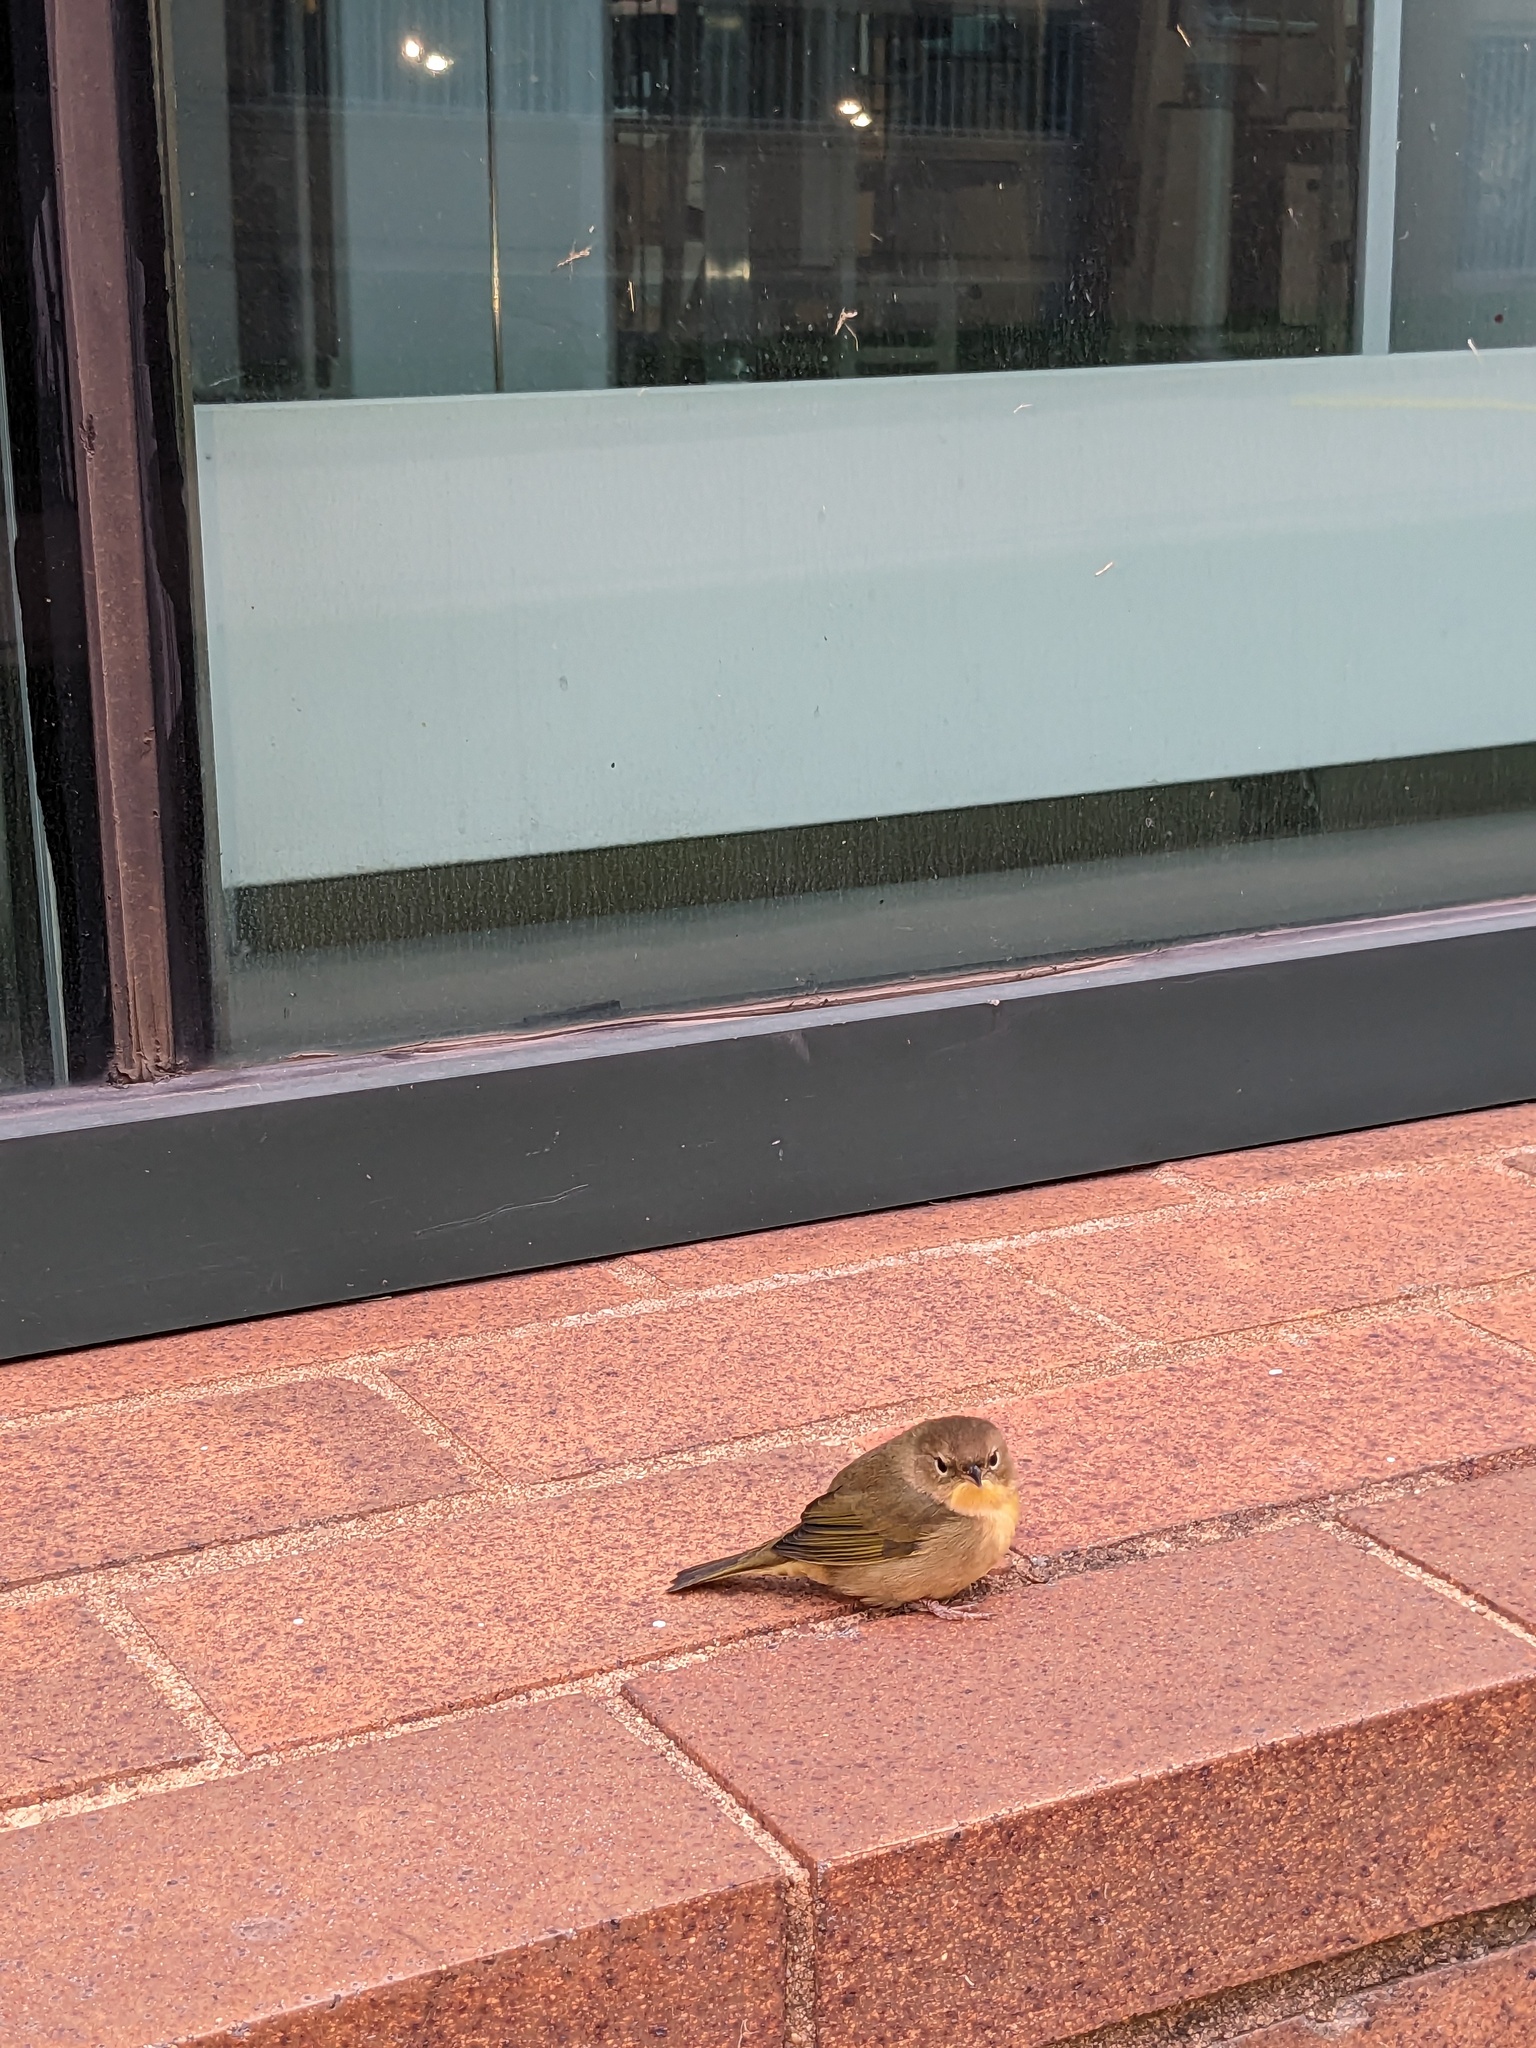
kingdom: Animalia
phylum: Chordata
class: Aves
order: Passeriformes
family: Parulidae
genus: Geothlypis
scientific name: Geothlypis trichas
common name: Common yellowthroat
